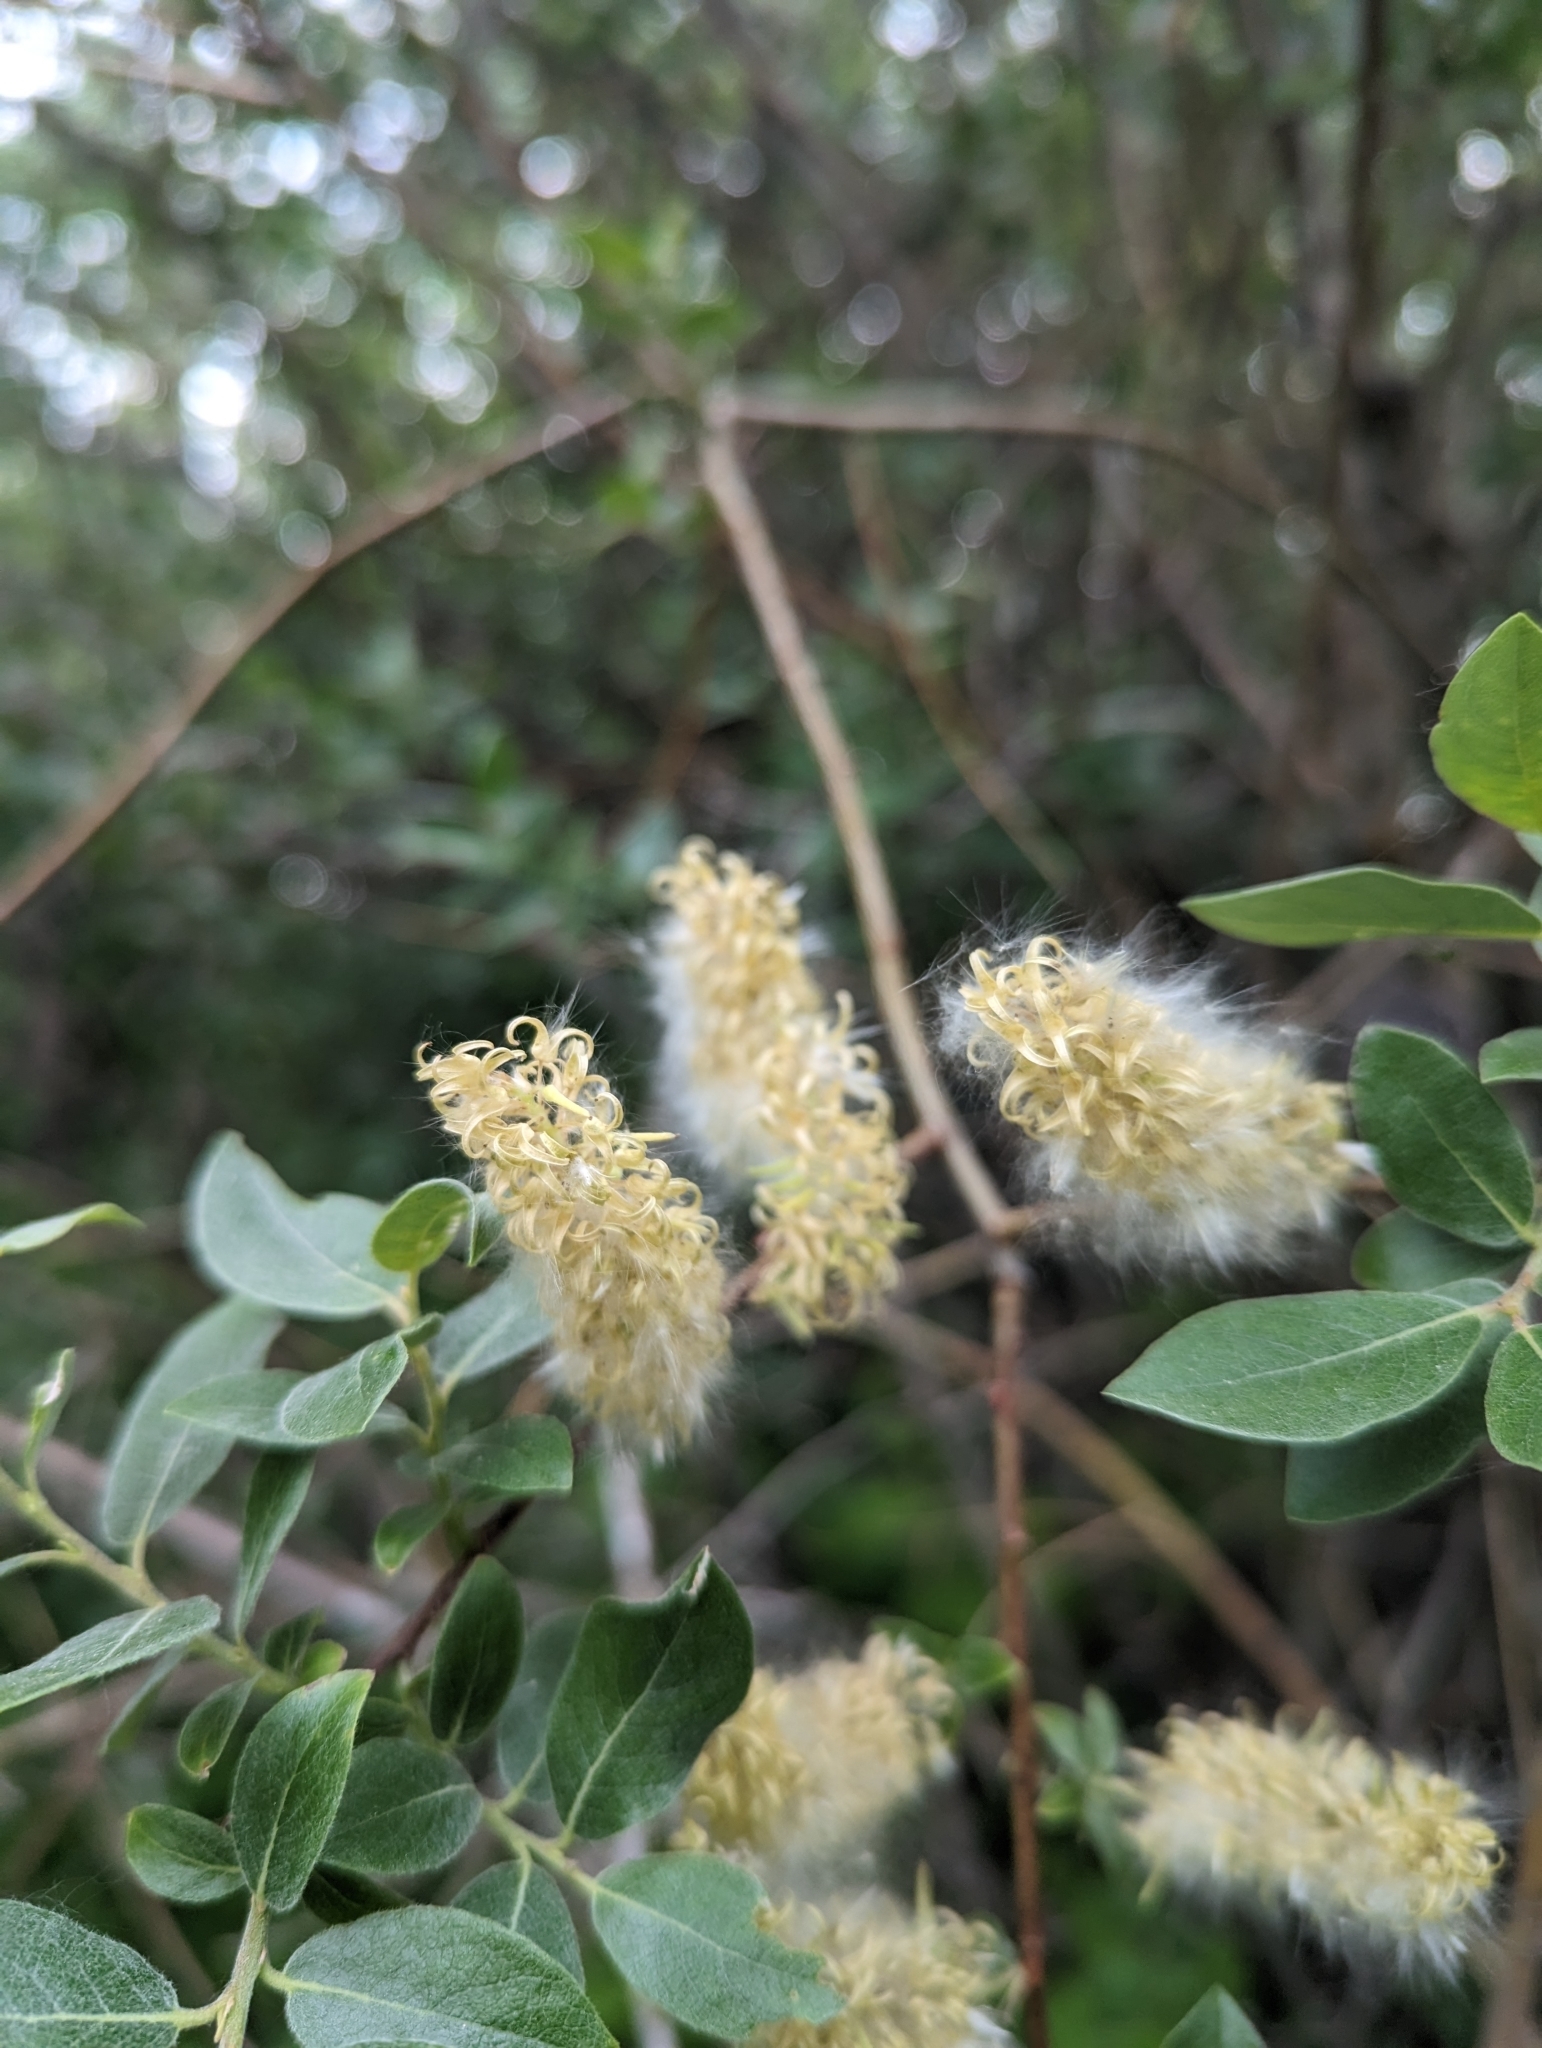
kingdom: Plantae
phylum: Tracheophyta
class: Magnoliopsida
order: Malpighiales
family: Salicaceae
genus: Salix
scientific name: Salix bebbiana
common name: Bebb's willow
